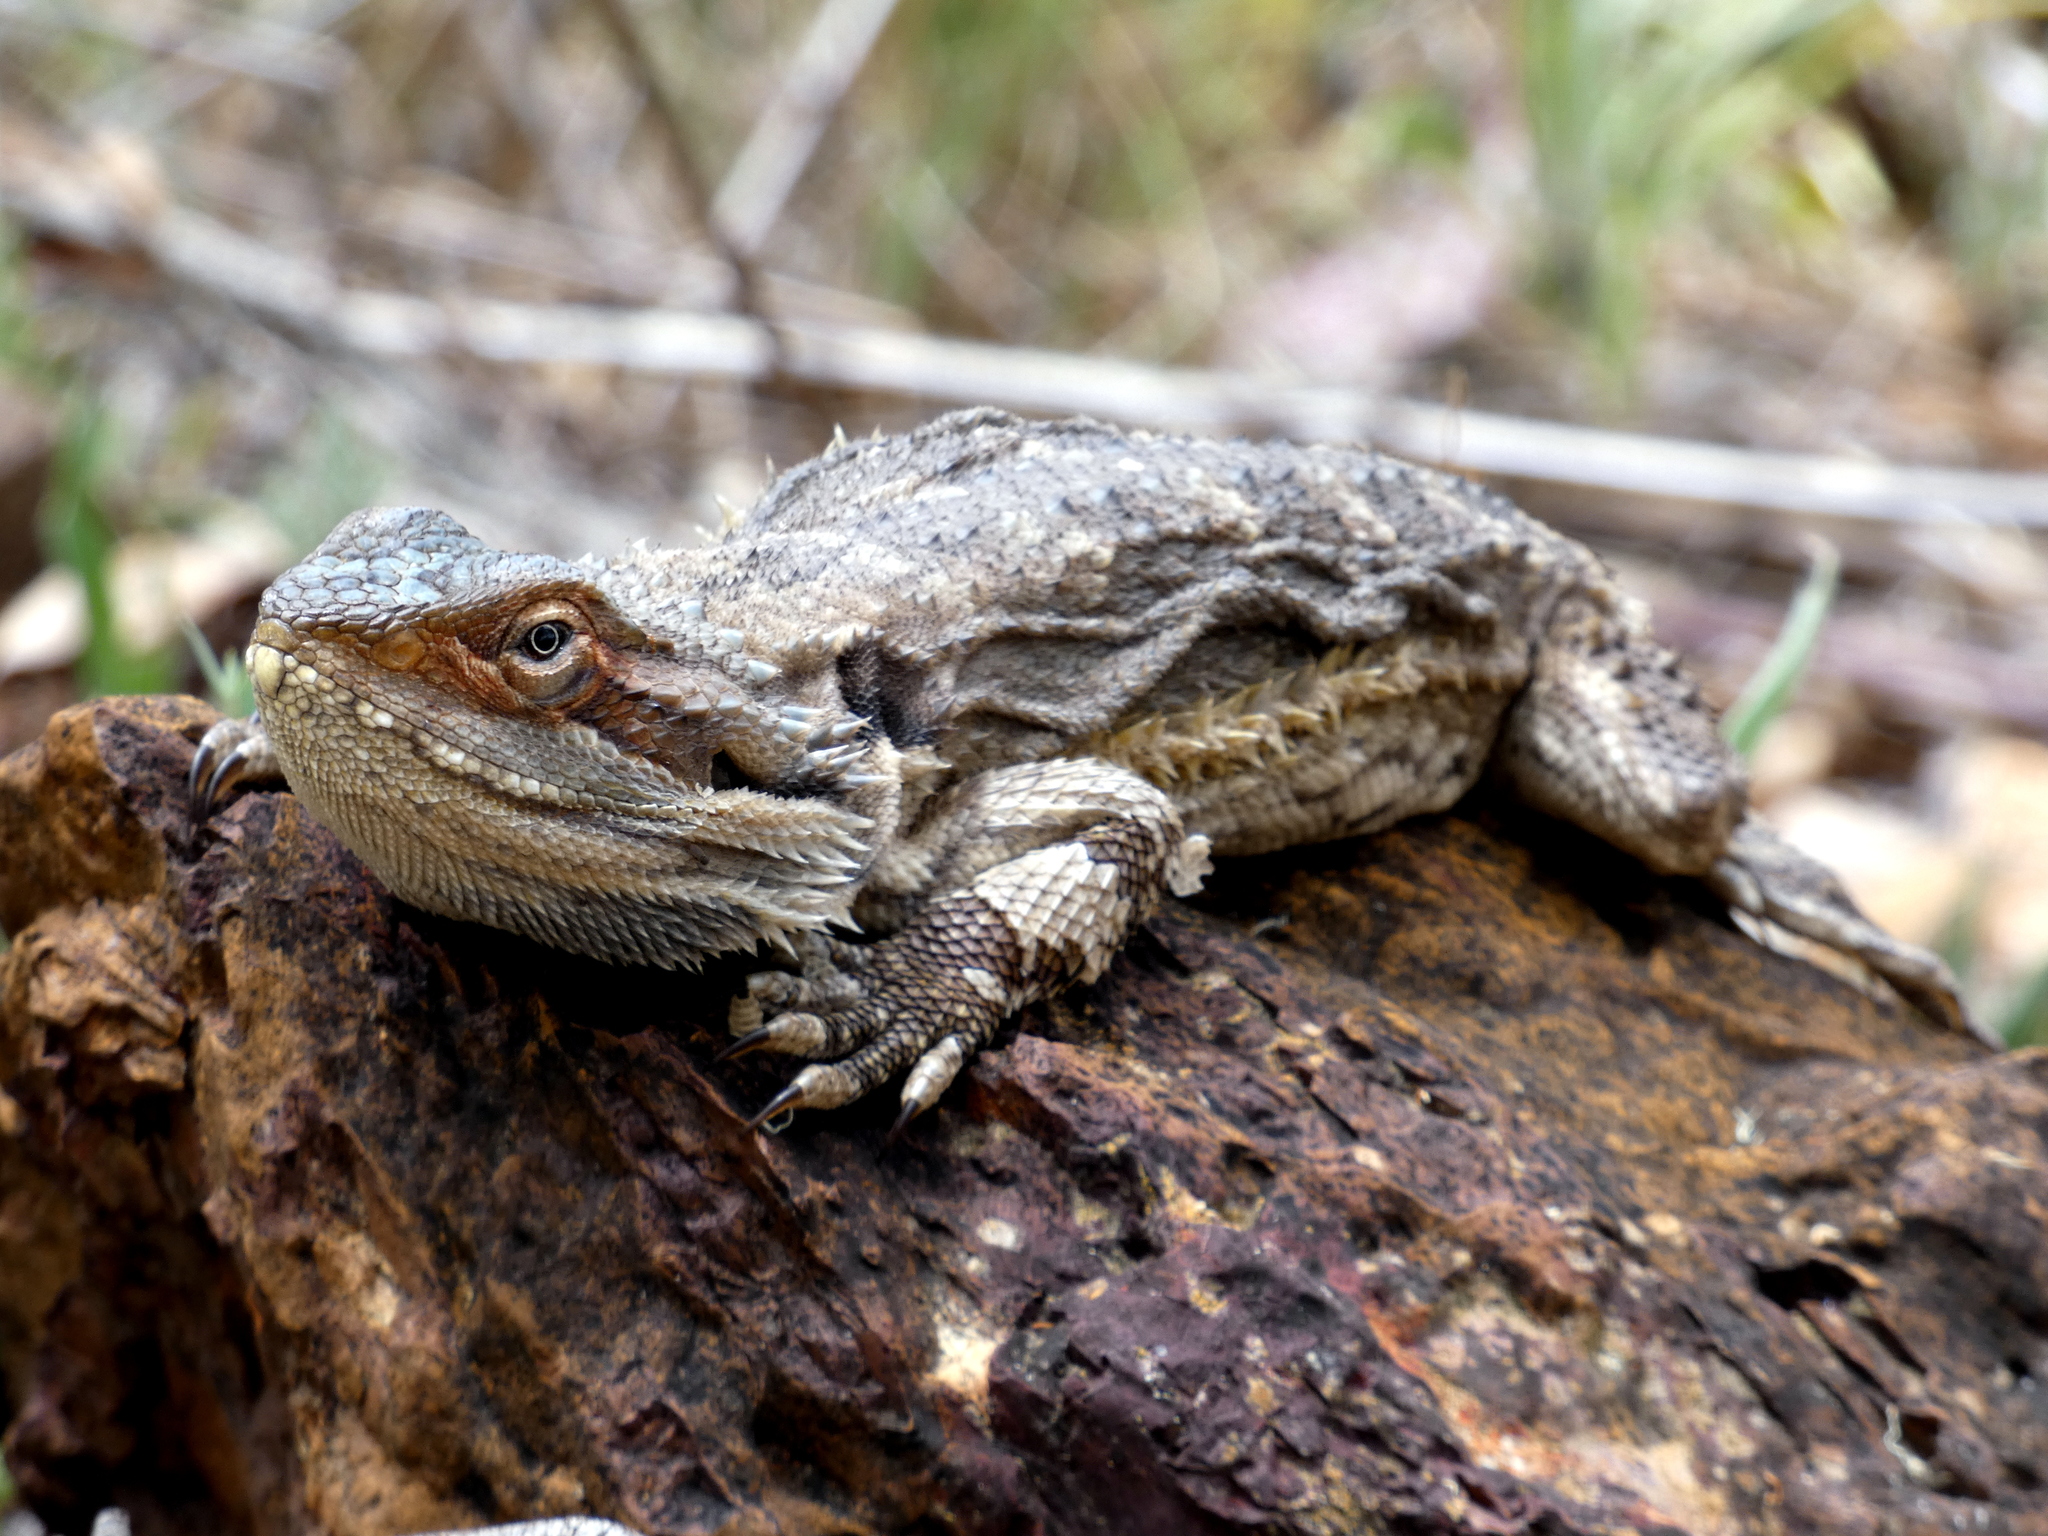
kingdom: Animalia
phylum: Chordata
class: Squamata
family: Agamidae
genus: Pogona
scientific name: Pogona barbata
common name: Bearded dragon
